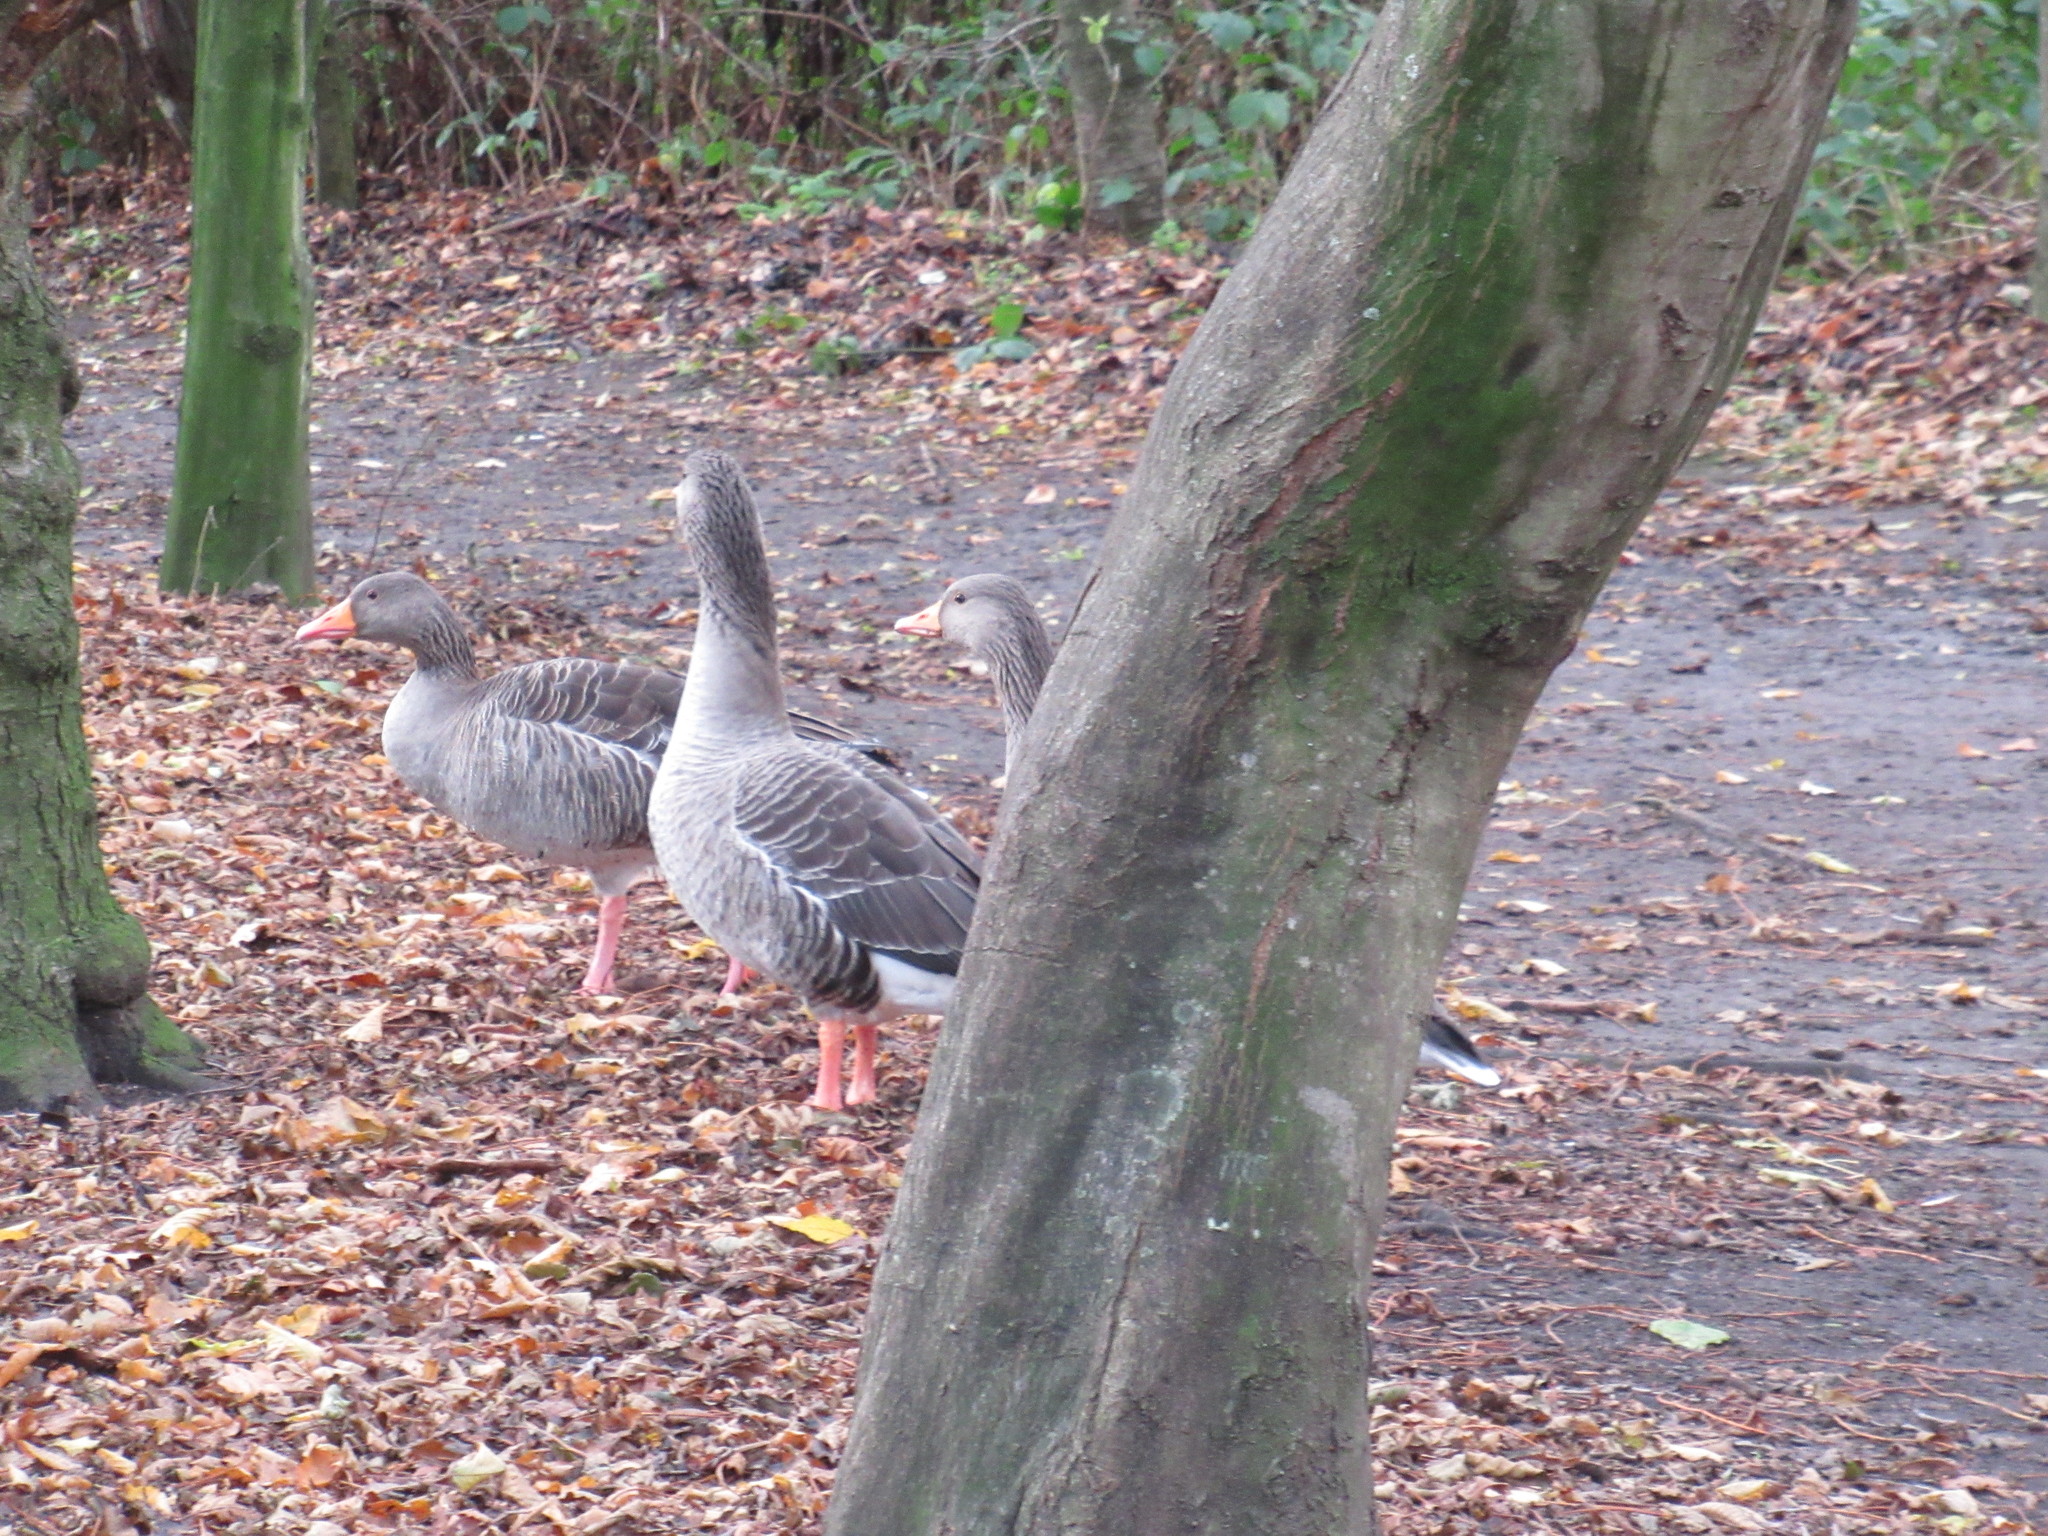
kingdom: Animalia
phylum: Chordata
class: Aves
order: Anseriformes
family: Anatidae
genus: Anser
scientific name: Anser anser
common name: Greylag goose
